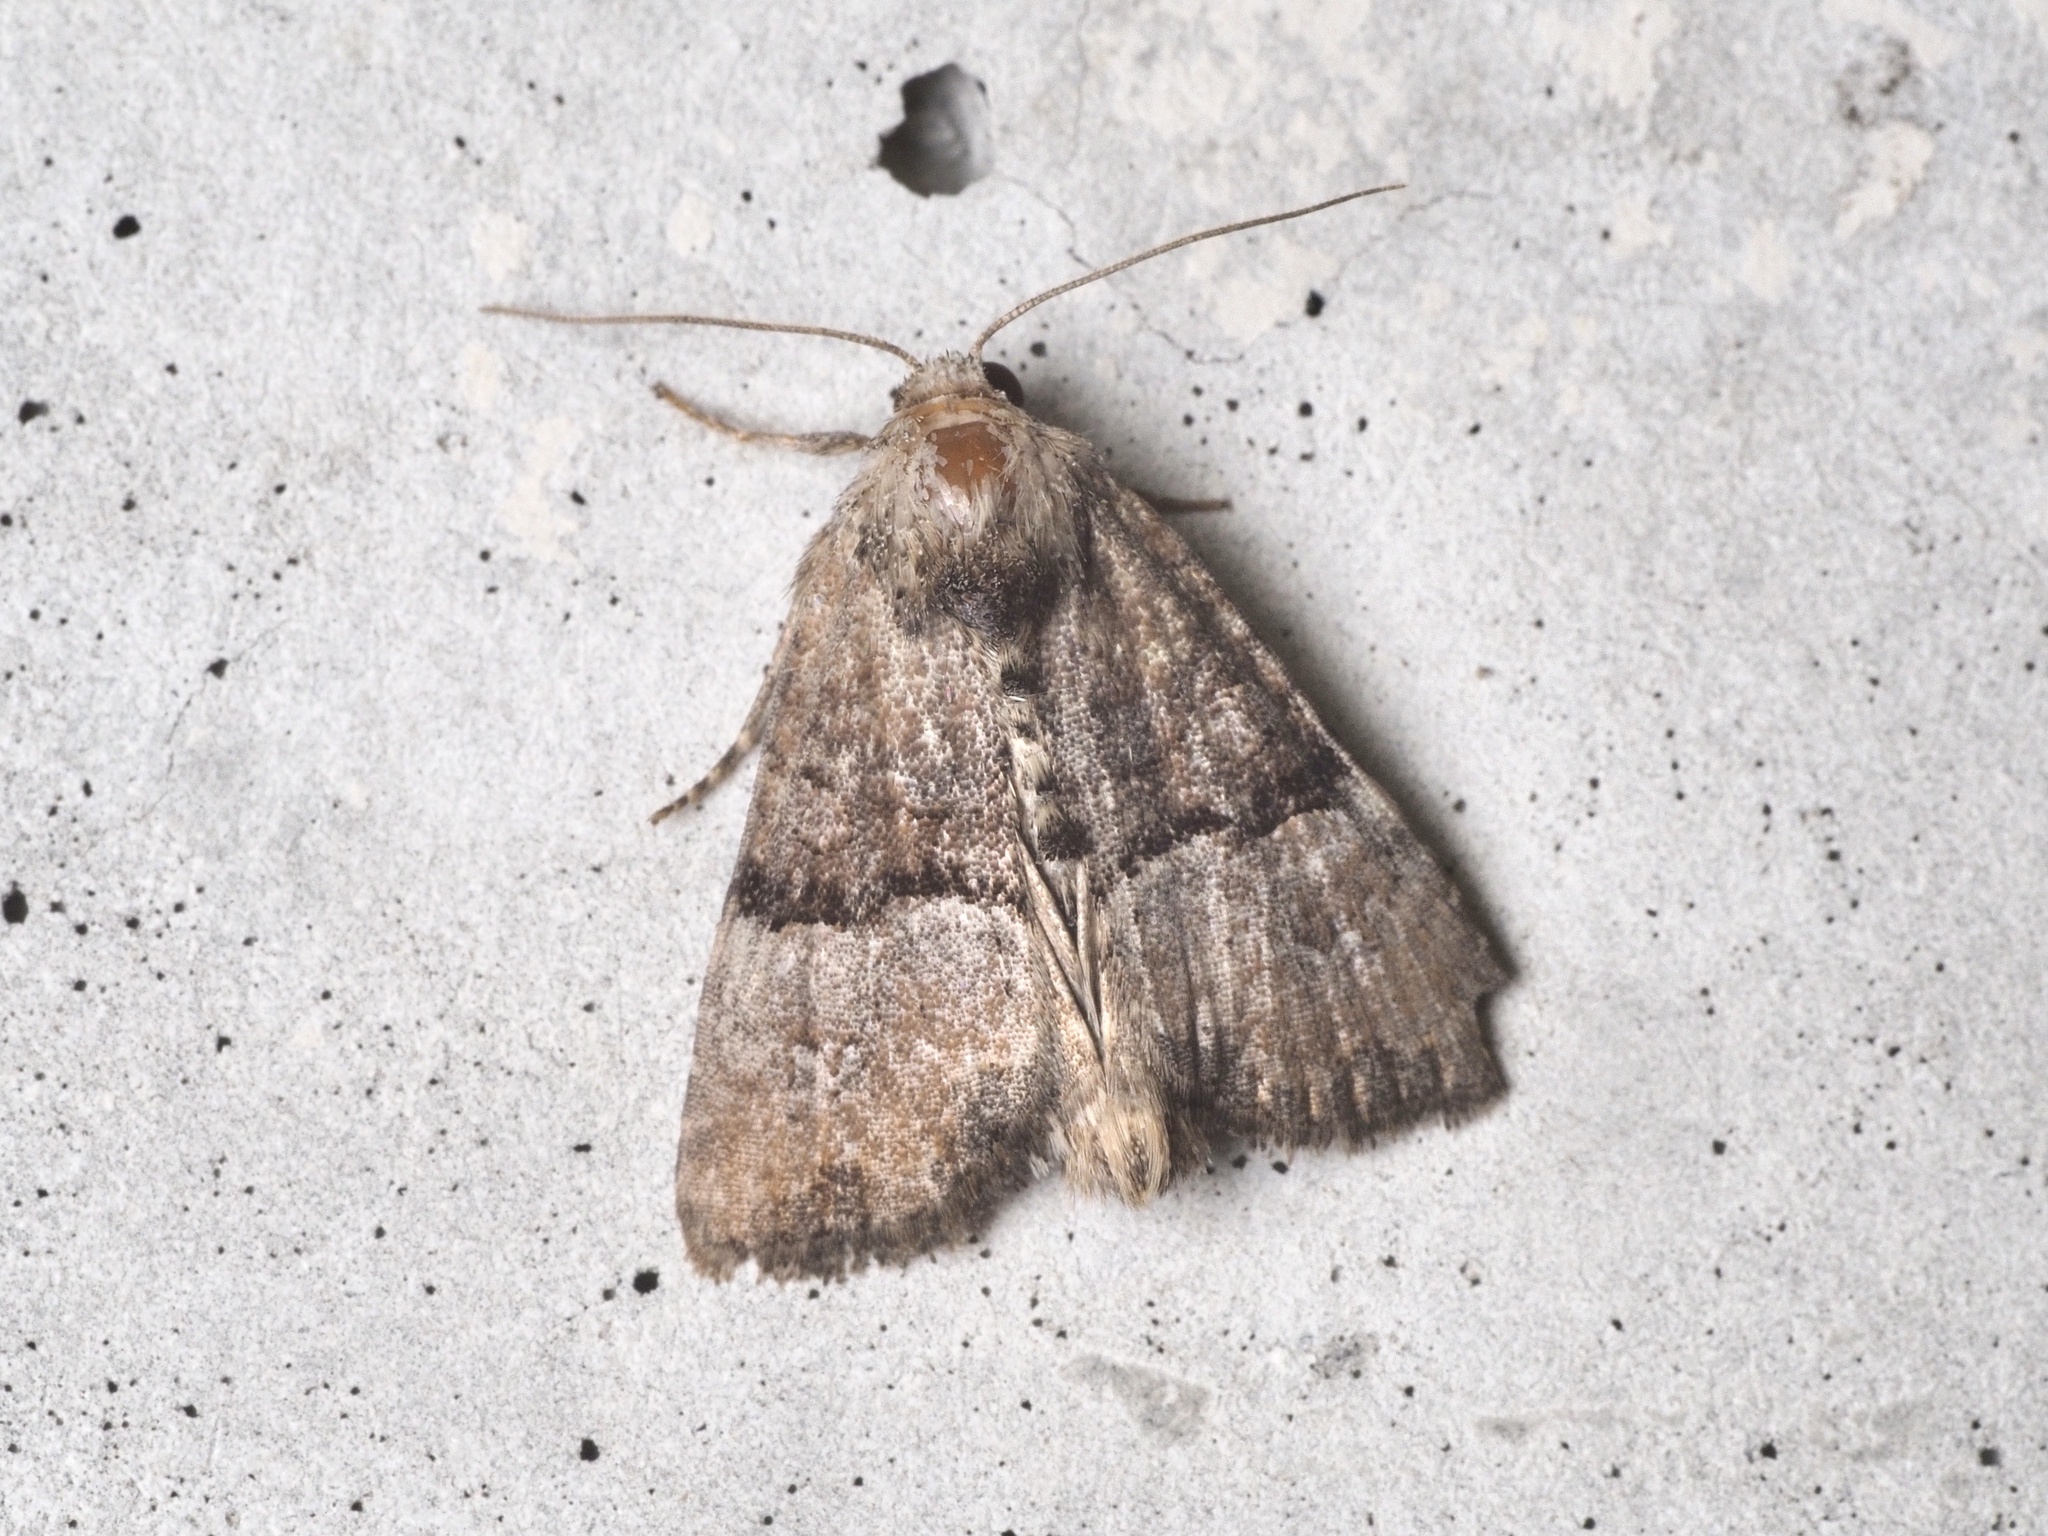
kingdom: Animalia
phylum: Arthropoda
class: Insecta
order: Lepidoptera
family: Noctuidae
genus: Mesoligia
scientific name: Mesoligia furuncula
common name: Cloaked minor
